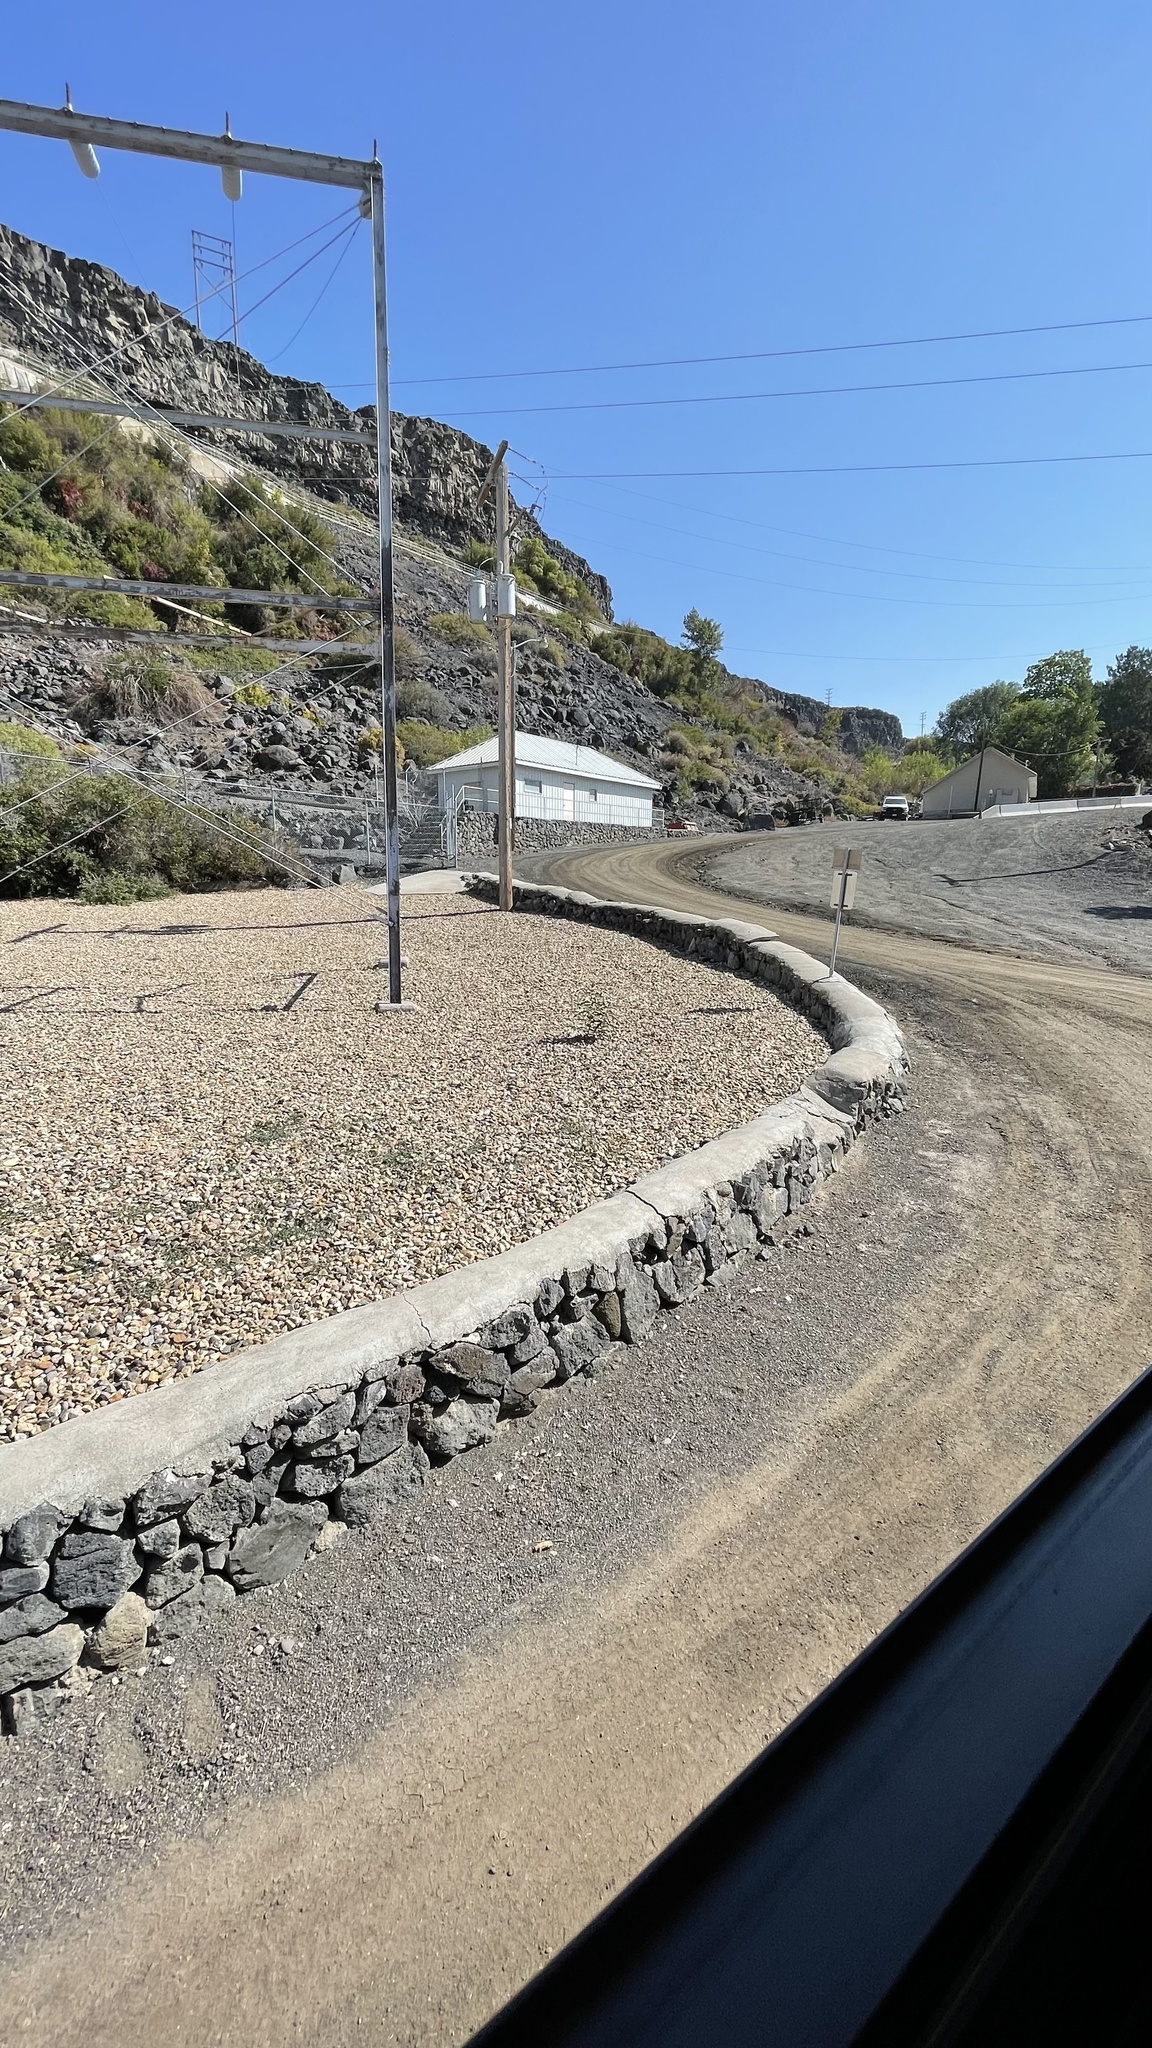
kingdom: Plantae
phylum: Tracheophyta
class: Magnoliopsida
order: Gentianales
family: Apocynaceae
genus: Asclepias
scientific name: Asclepias speciosa
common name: Showy milkweed
